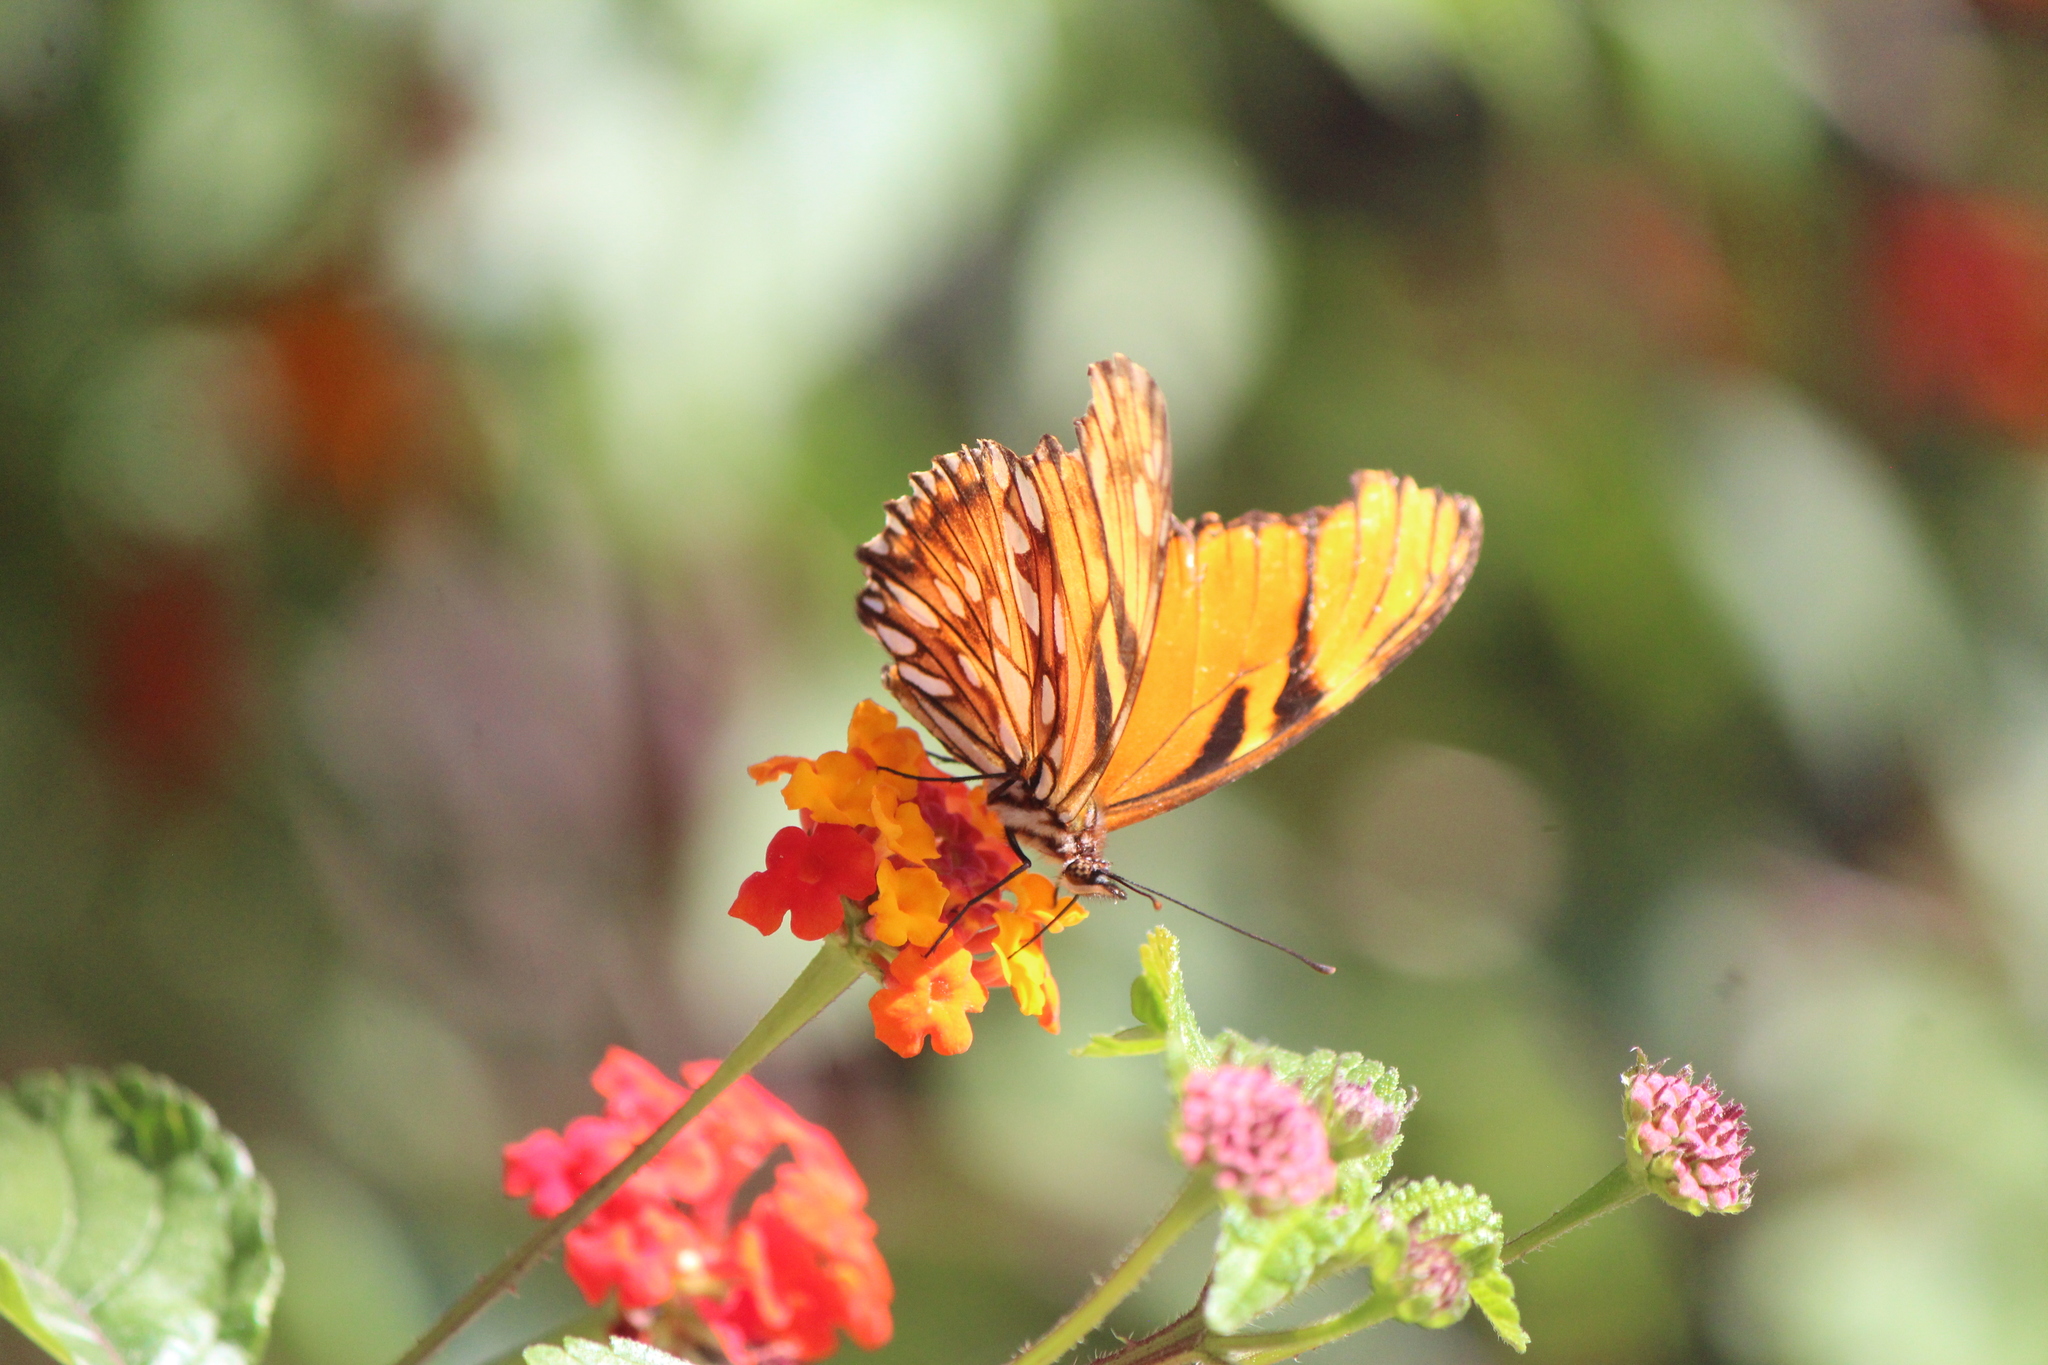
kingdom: Animalia
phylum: Arthropoda
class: Insecta
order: Lepidoptera
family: Nymphalidae
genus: Dione
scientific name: Dione juno
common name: Juno silverspot
